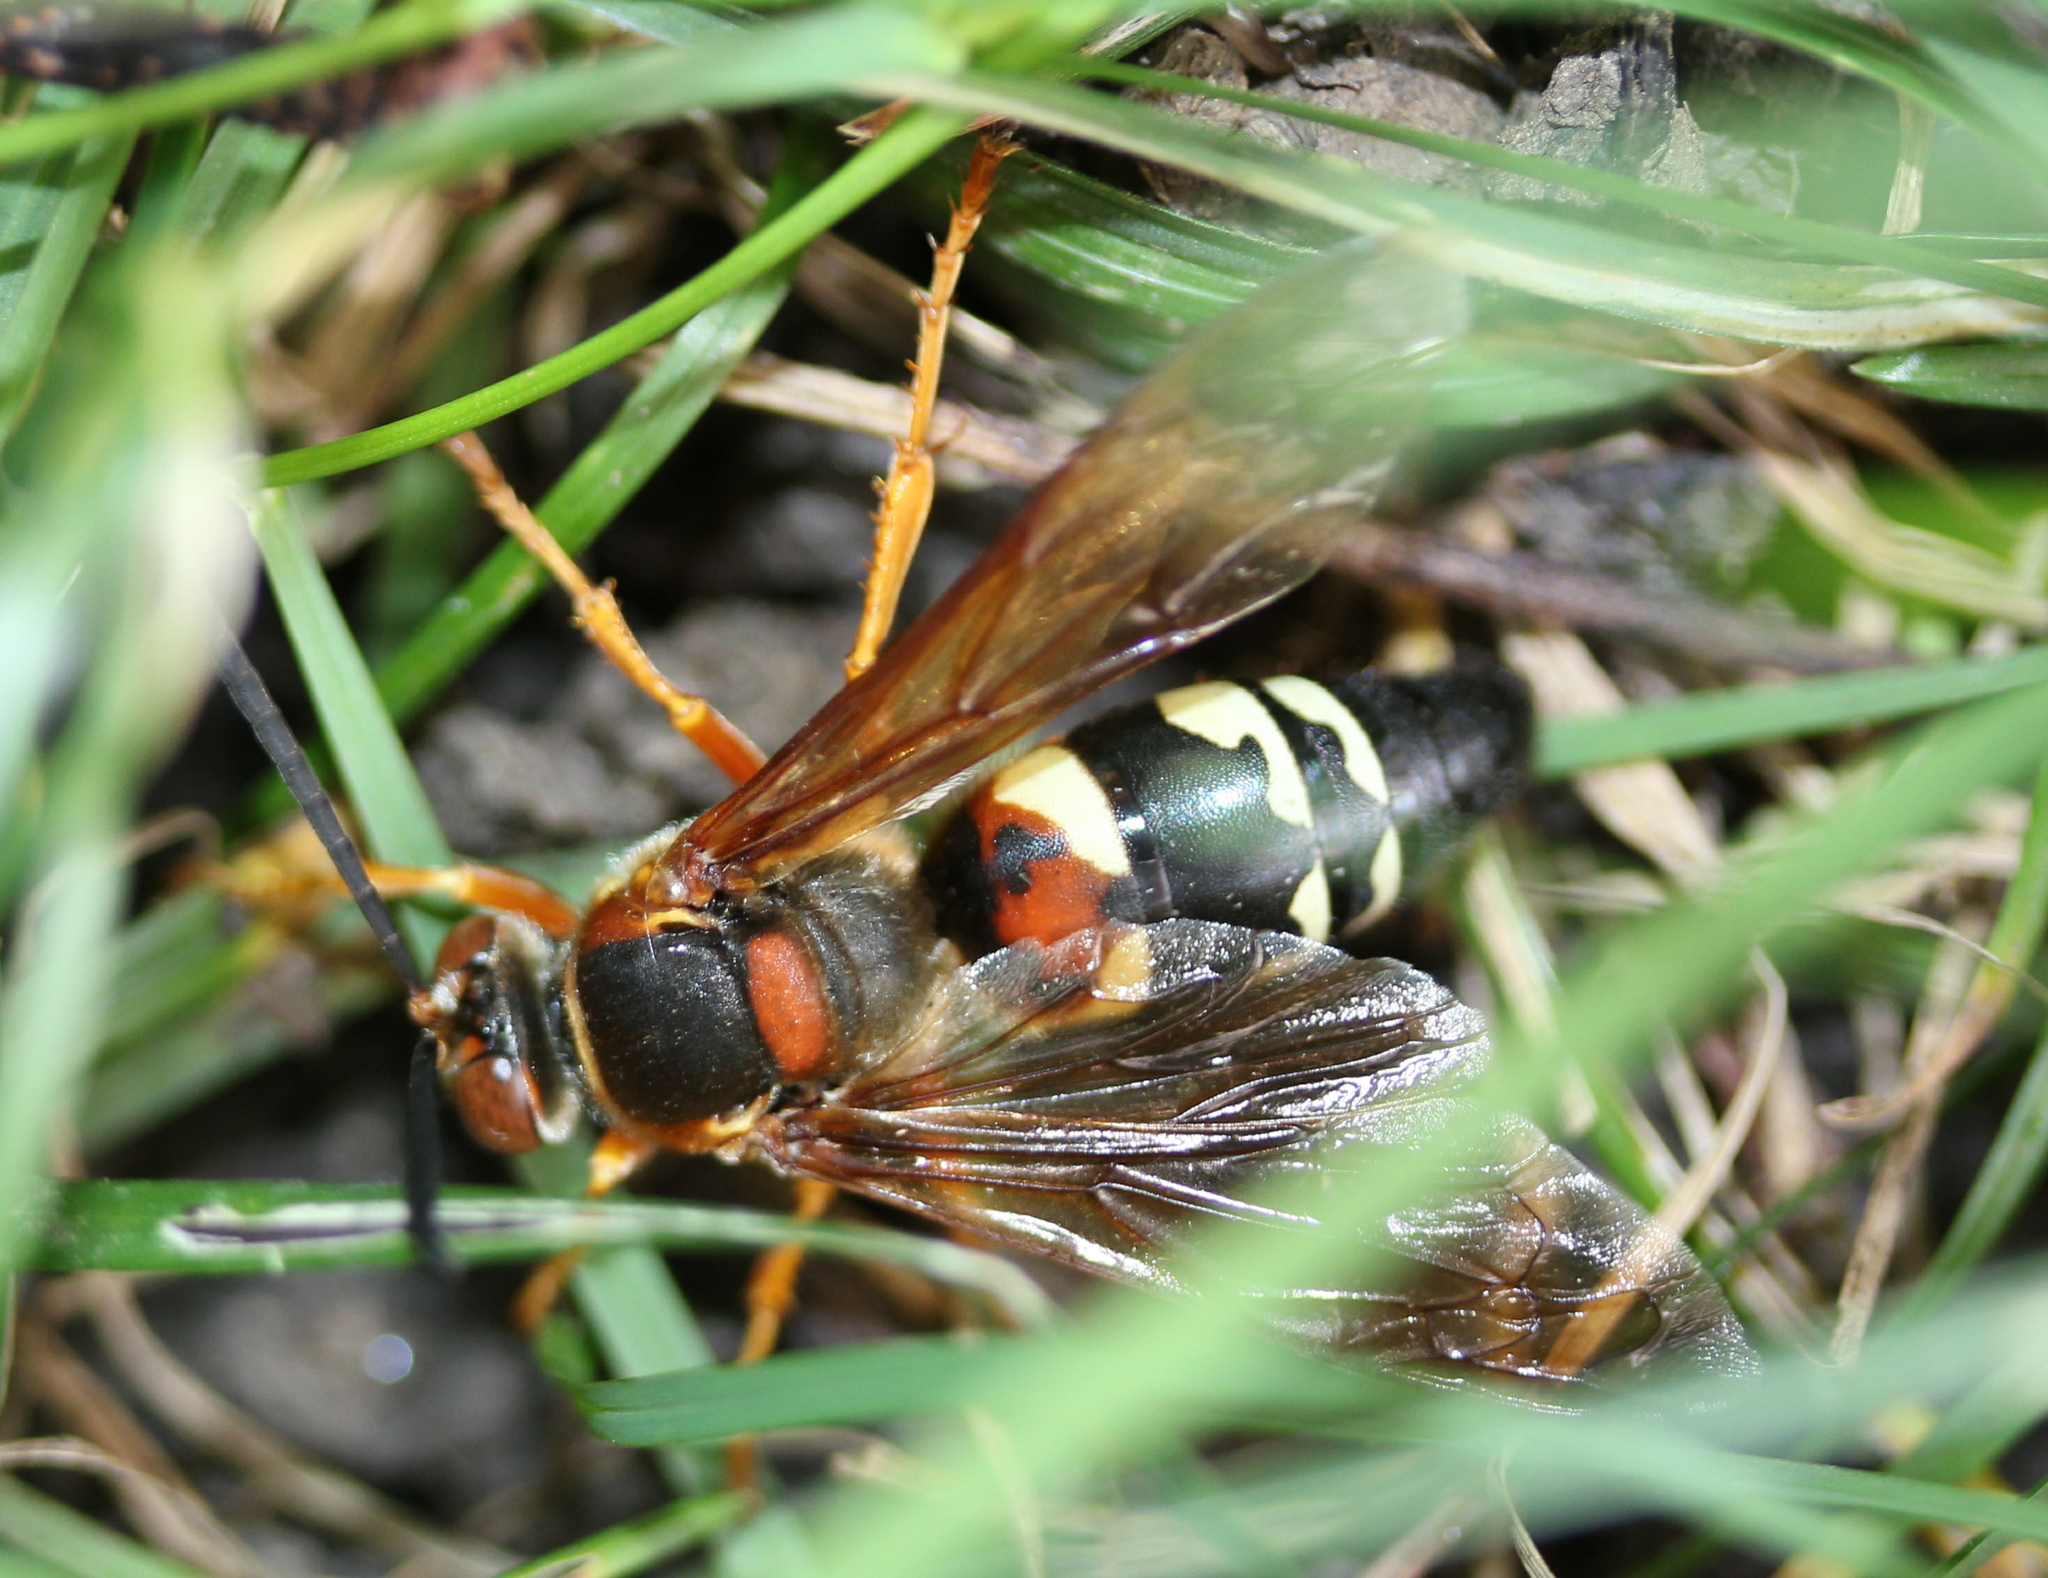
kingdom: Animalia
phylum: Arthropoda
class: Insecta
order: Hymenoptera
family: Crabronidae
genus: Sphecius
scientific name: Sphecius speciosus
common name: Cicada killer
